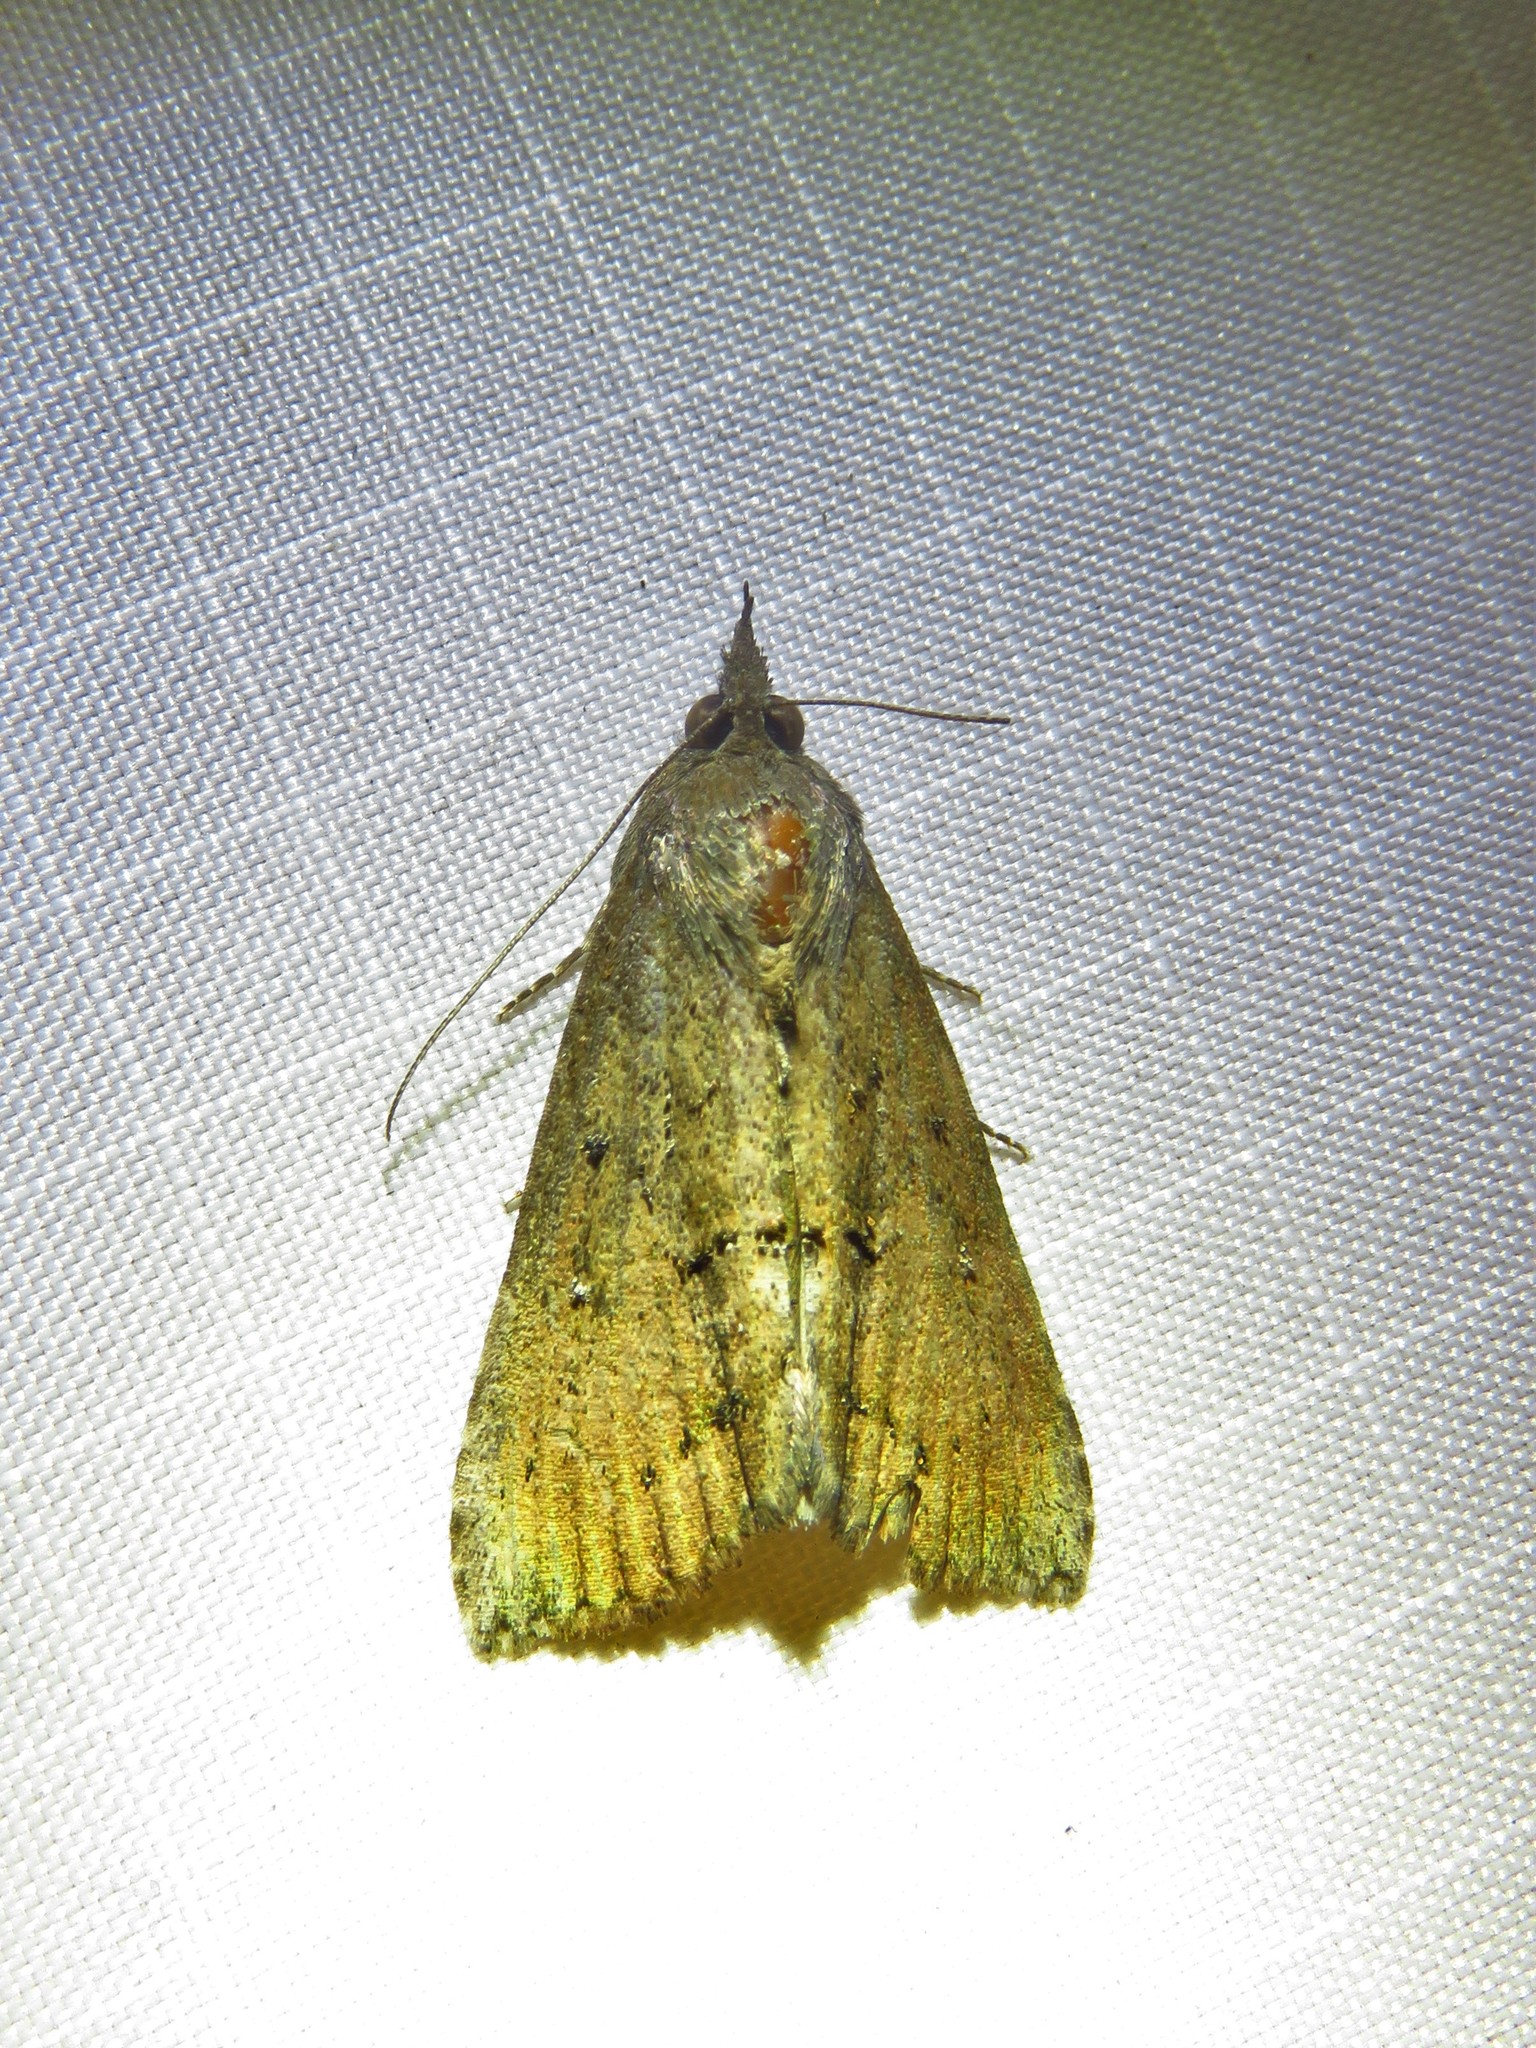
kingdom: Animalia
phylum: Arthropoda
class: Insecta
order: Lepidoptera
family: Erebidae
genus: Hypena
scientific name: Hypena scabra
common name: Green cloverworm
